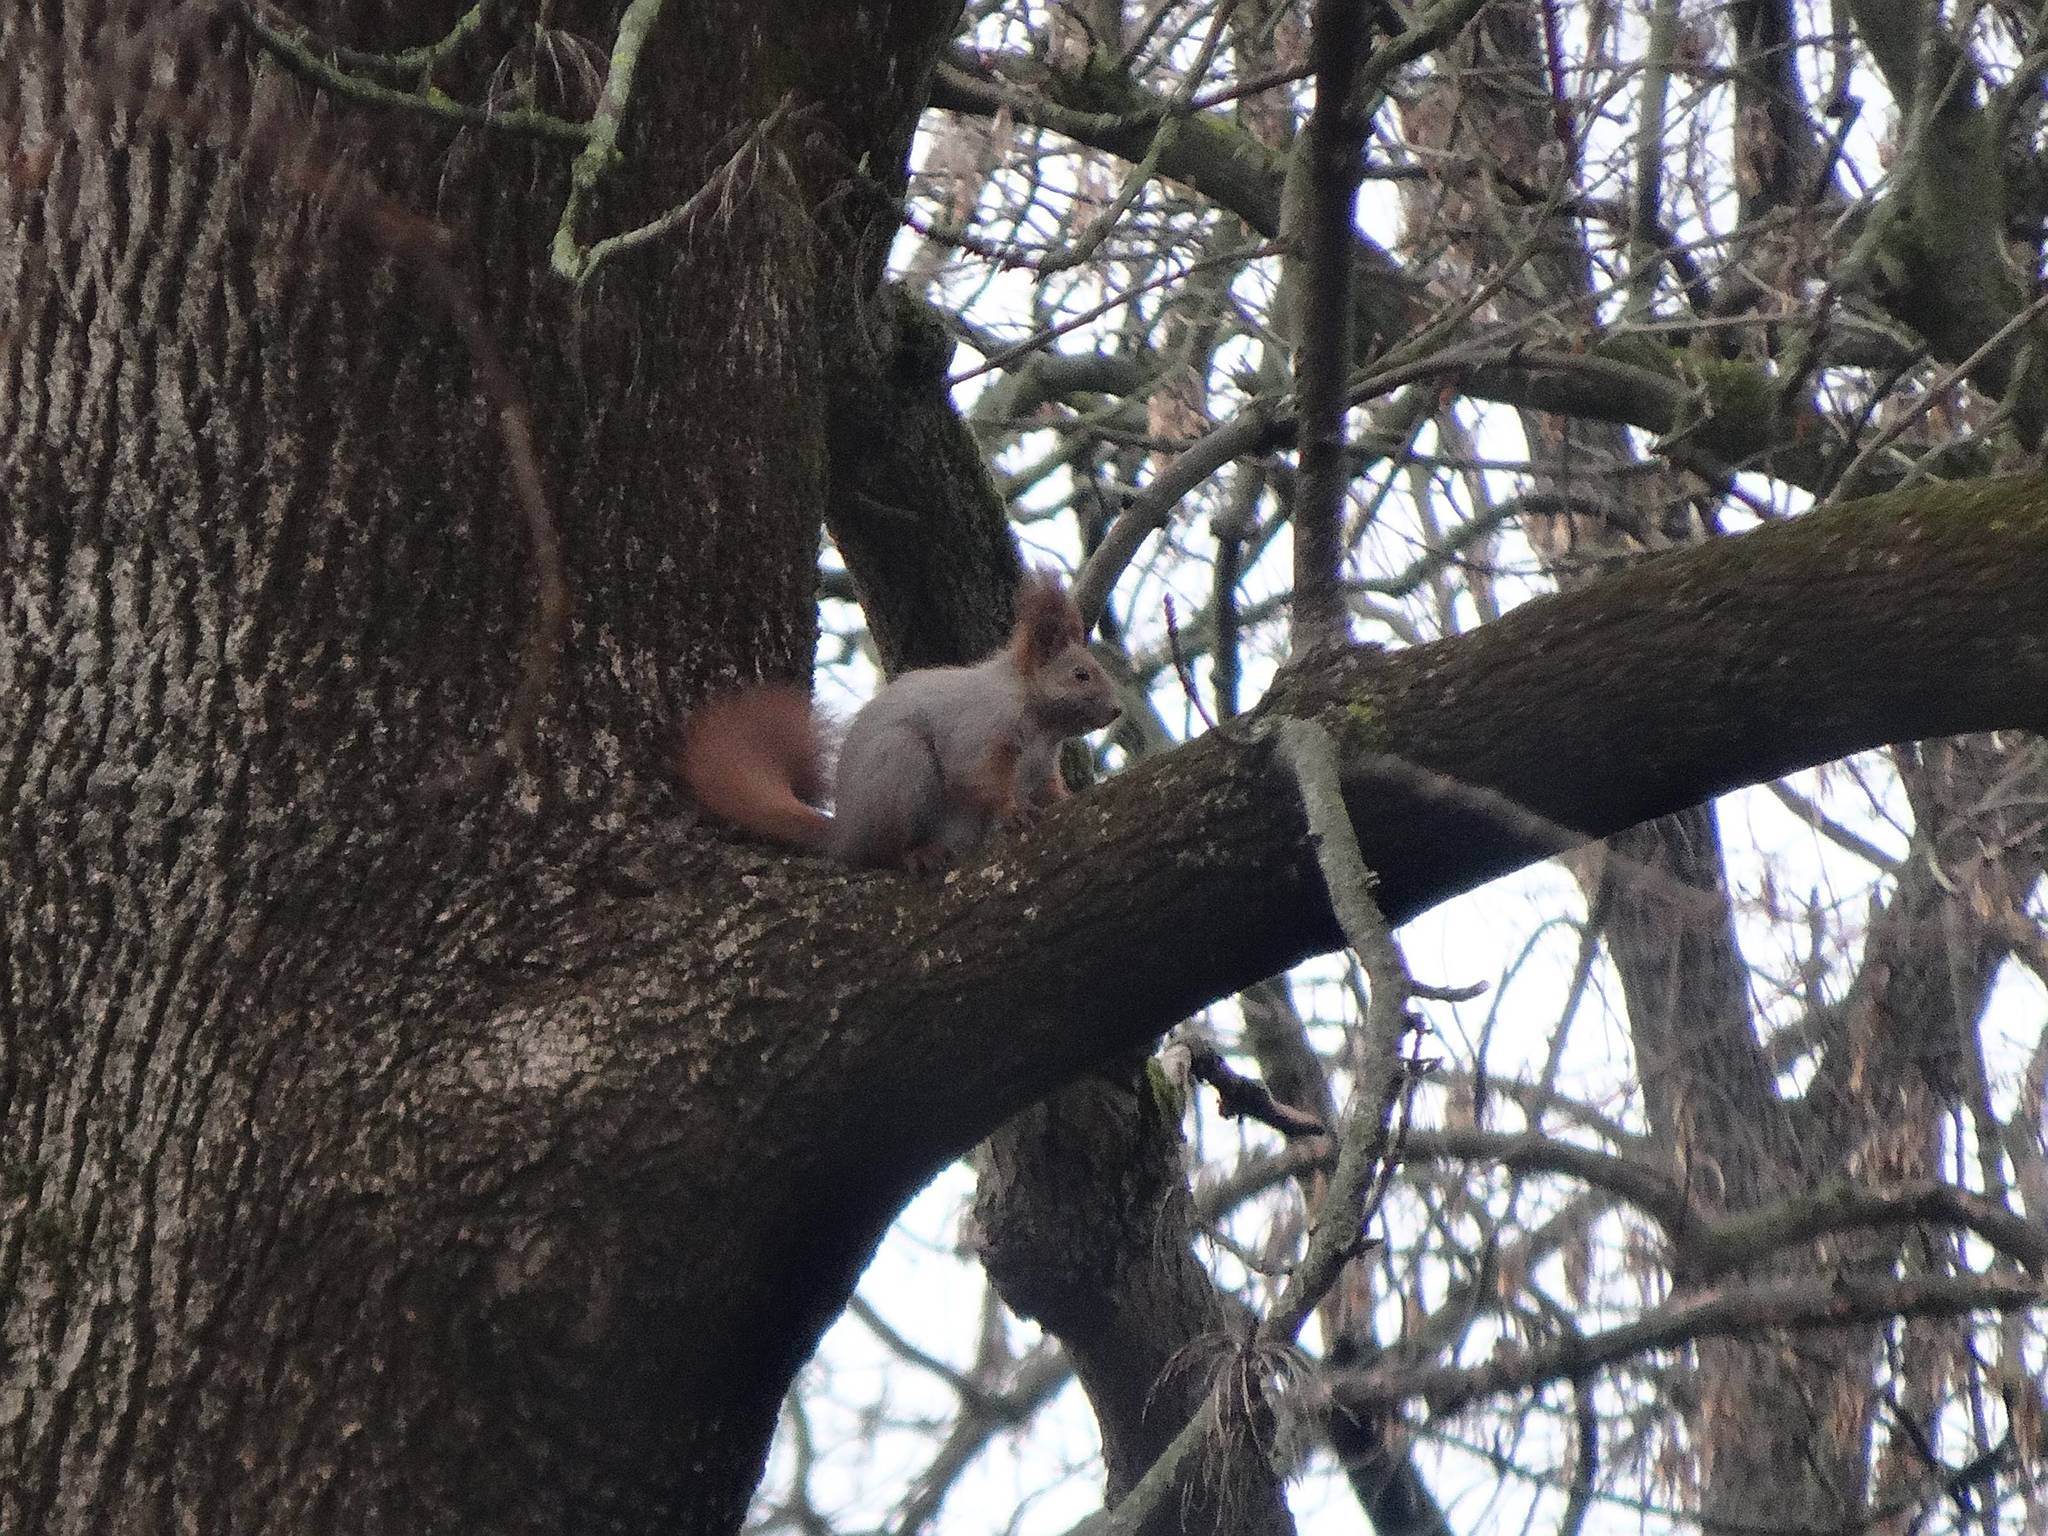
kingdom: Animalia
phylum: Chordata
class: Mammalia
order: Rodentia
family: Sciuridae
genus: Sciurus
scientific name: Sciurus vulgaris
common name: Eurasian red squirrel
